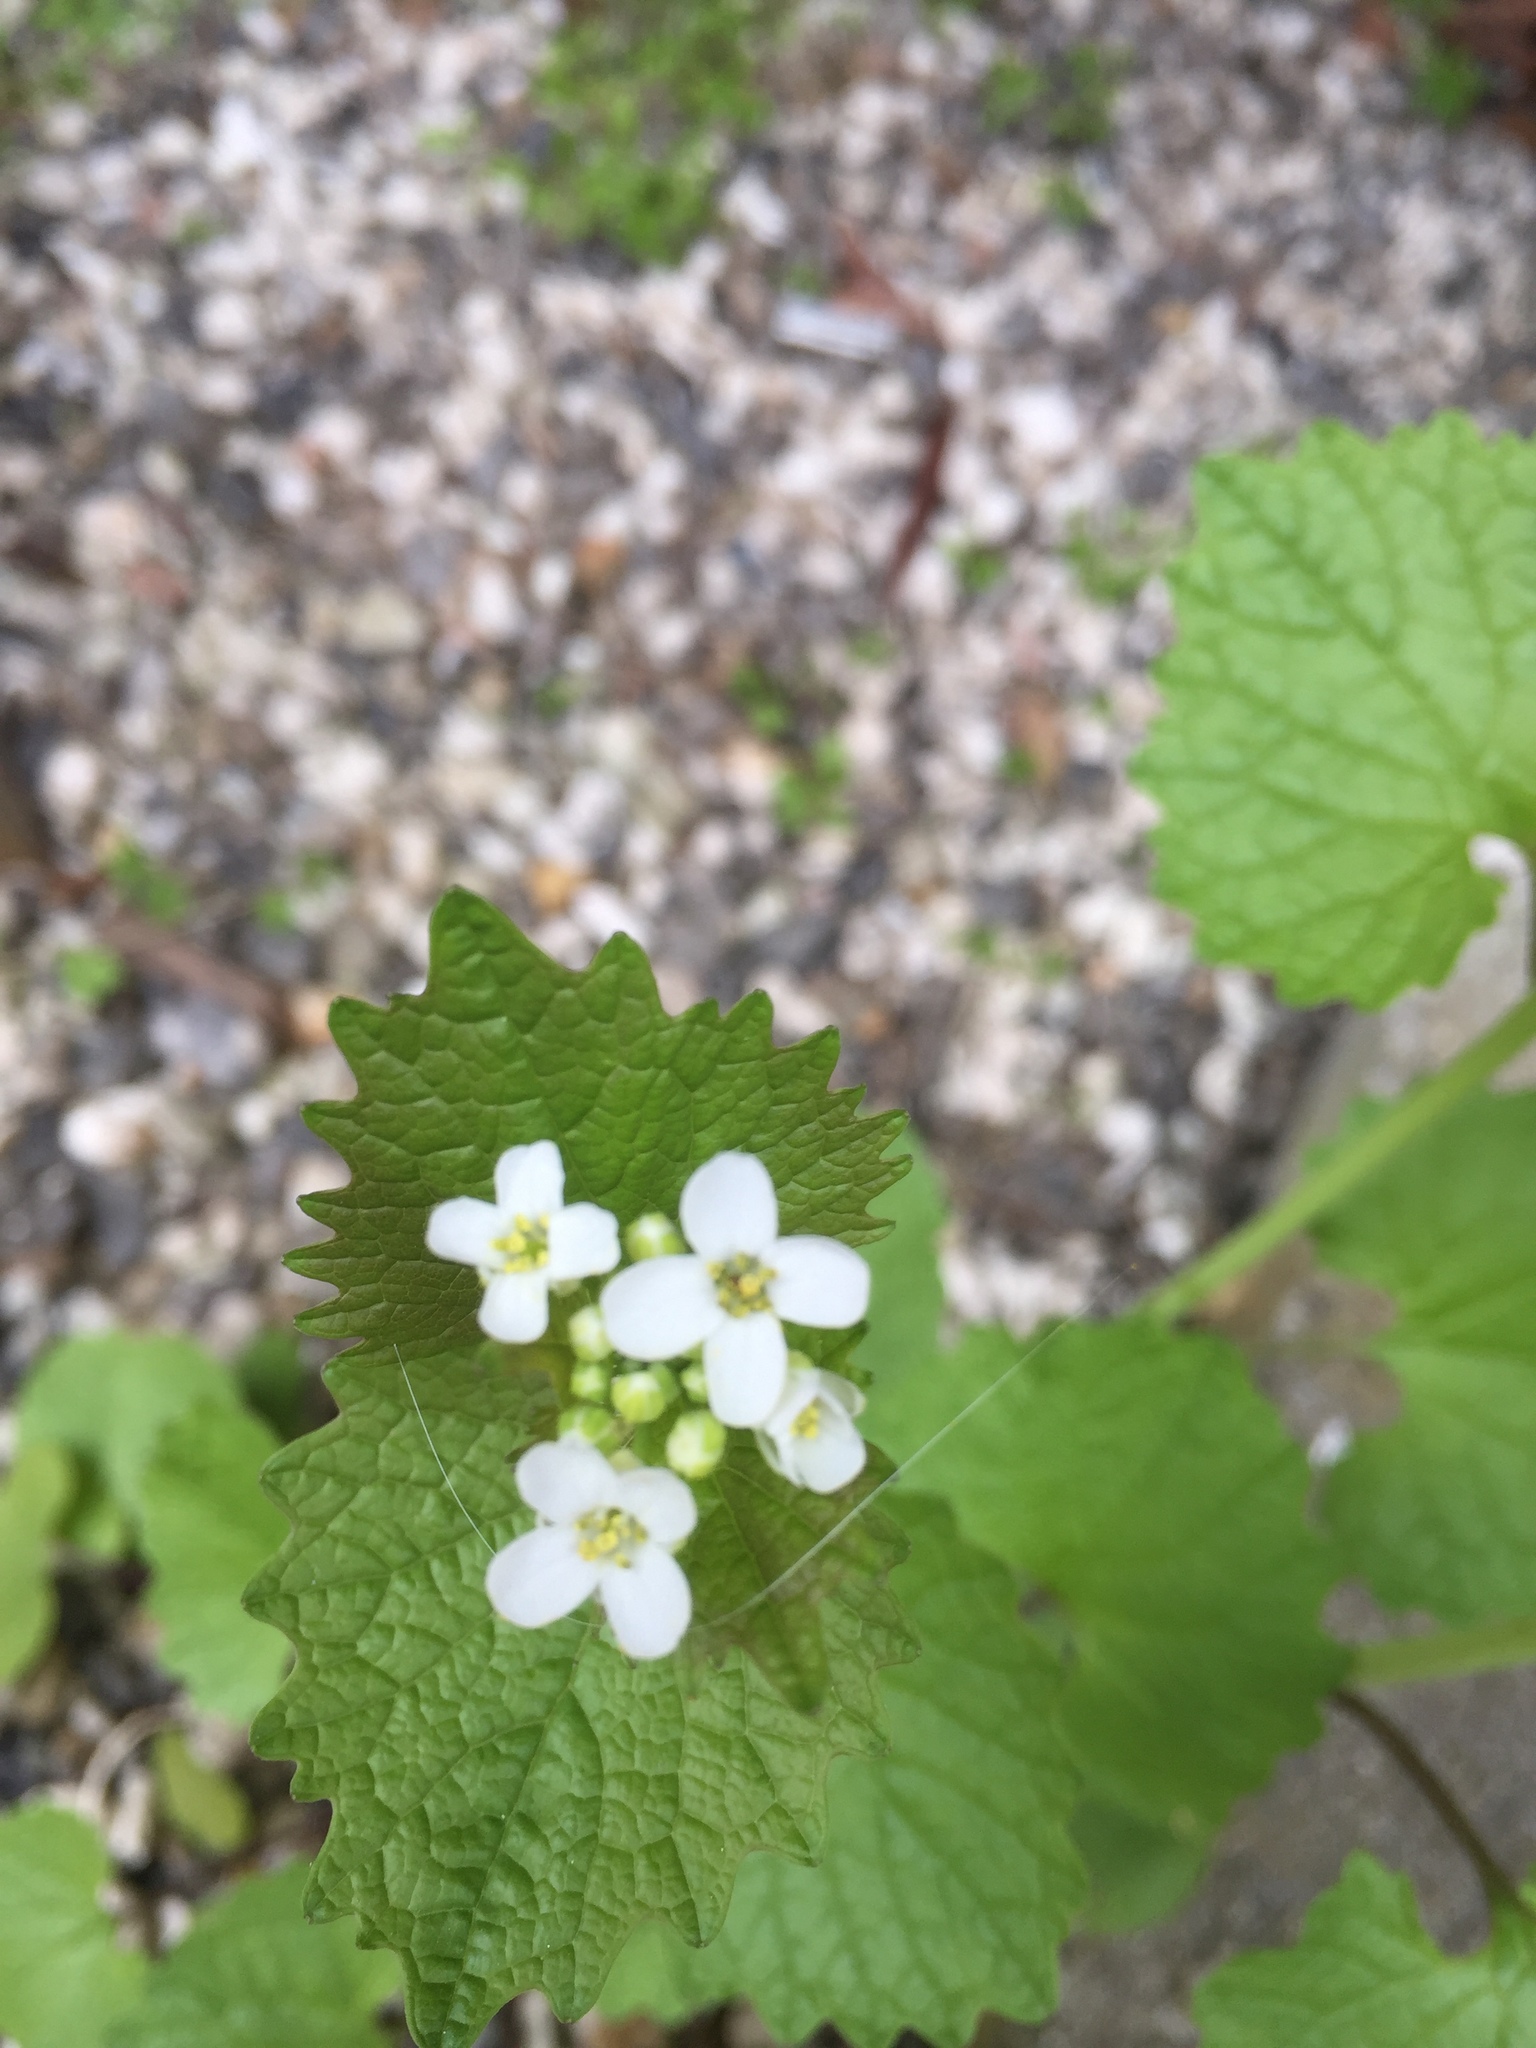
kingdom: Plantae
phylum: Tracheophyta
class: Magnoliopsida
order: Brassicales
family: Brassicaceae
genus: Alliaria
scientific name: Alliaria petiolata
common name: Garlic mustard
